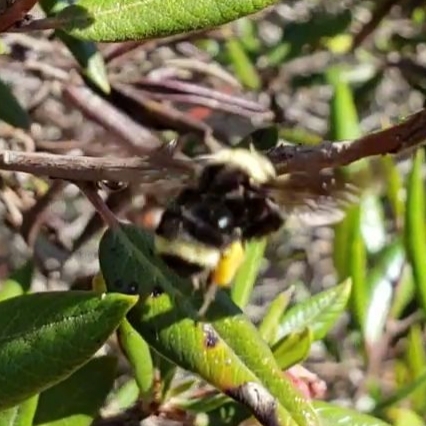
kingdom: Animalia
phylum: Arthropoda
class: Insecta
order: Hymenoptera
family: Apidae
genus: Bombus
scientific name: Bombus vosnesenskii
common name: Vosnesensky bumble bee
